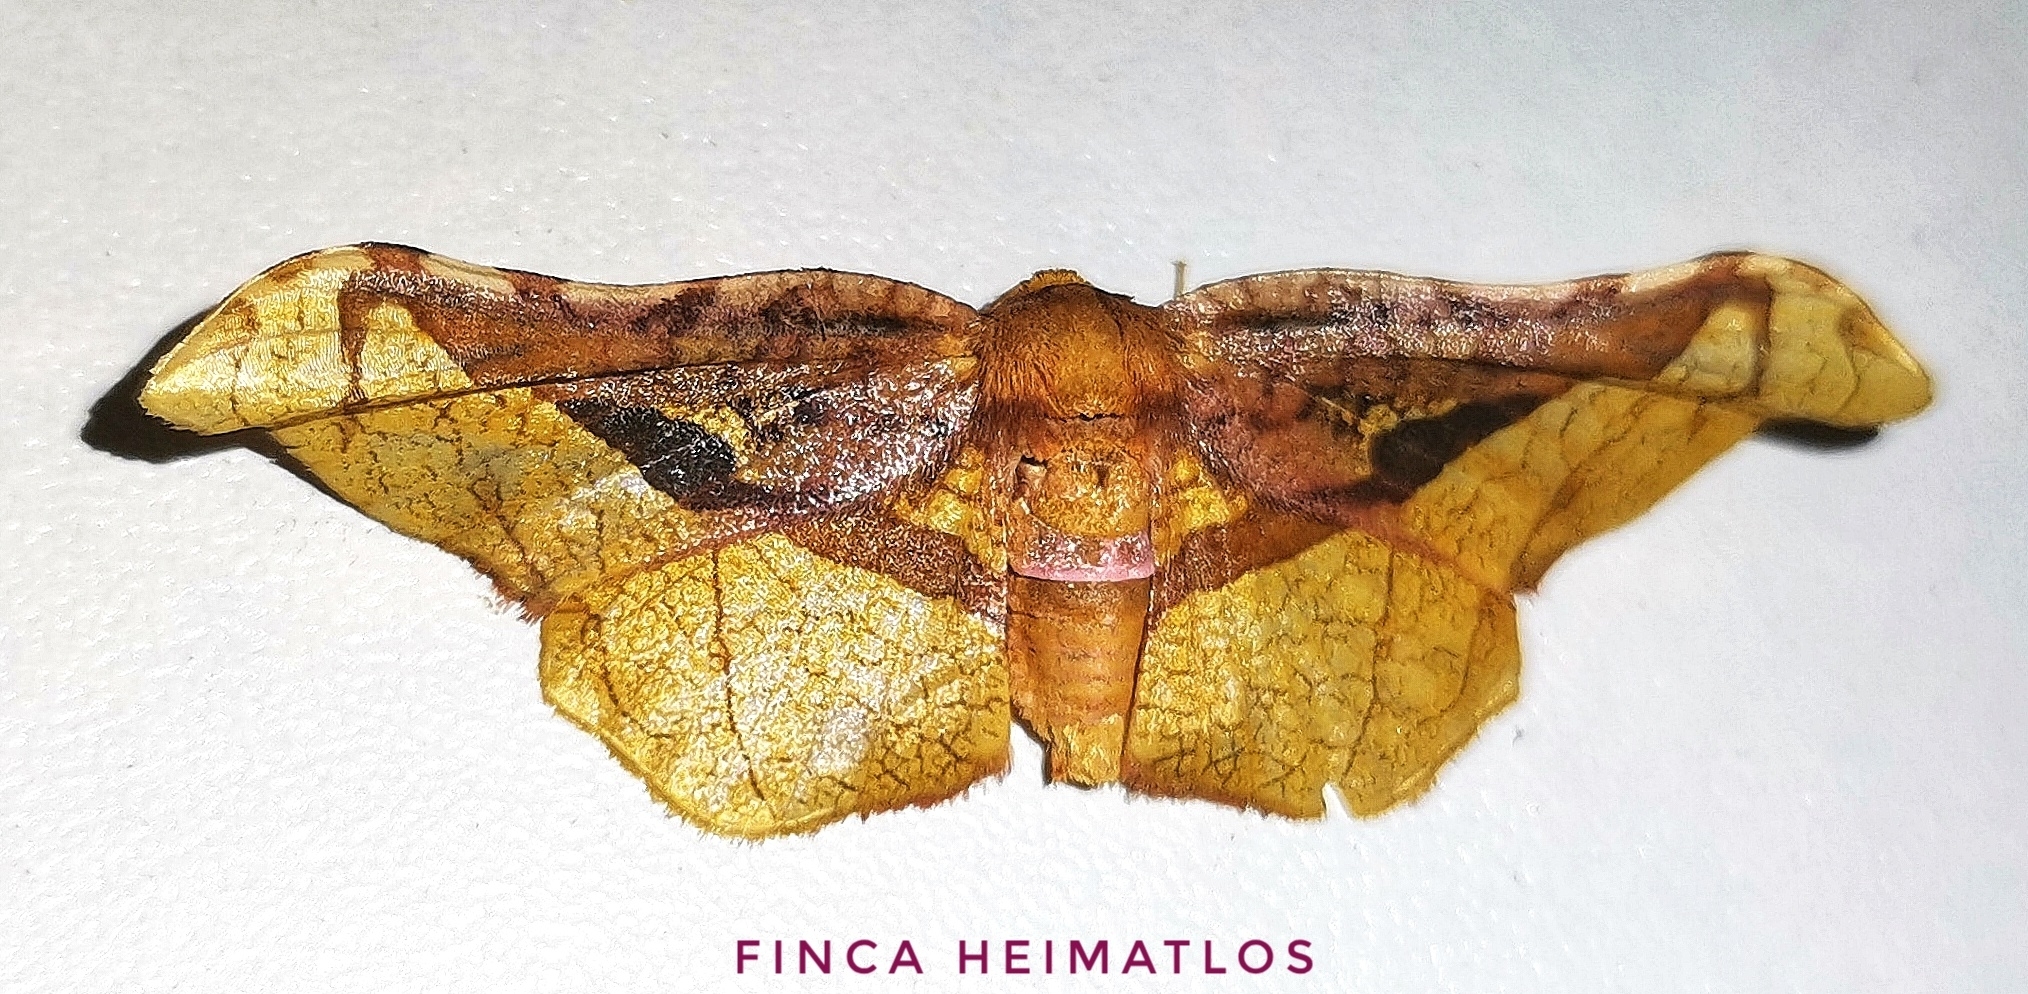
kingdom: Animalia
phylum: Arthropoda
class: Insecta
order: Lepidoptera
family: Thyrididae
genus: Belonoptera
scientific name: Belonoptera selenioides
